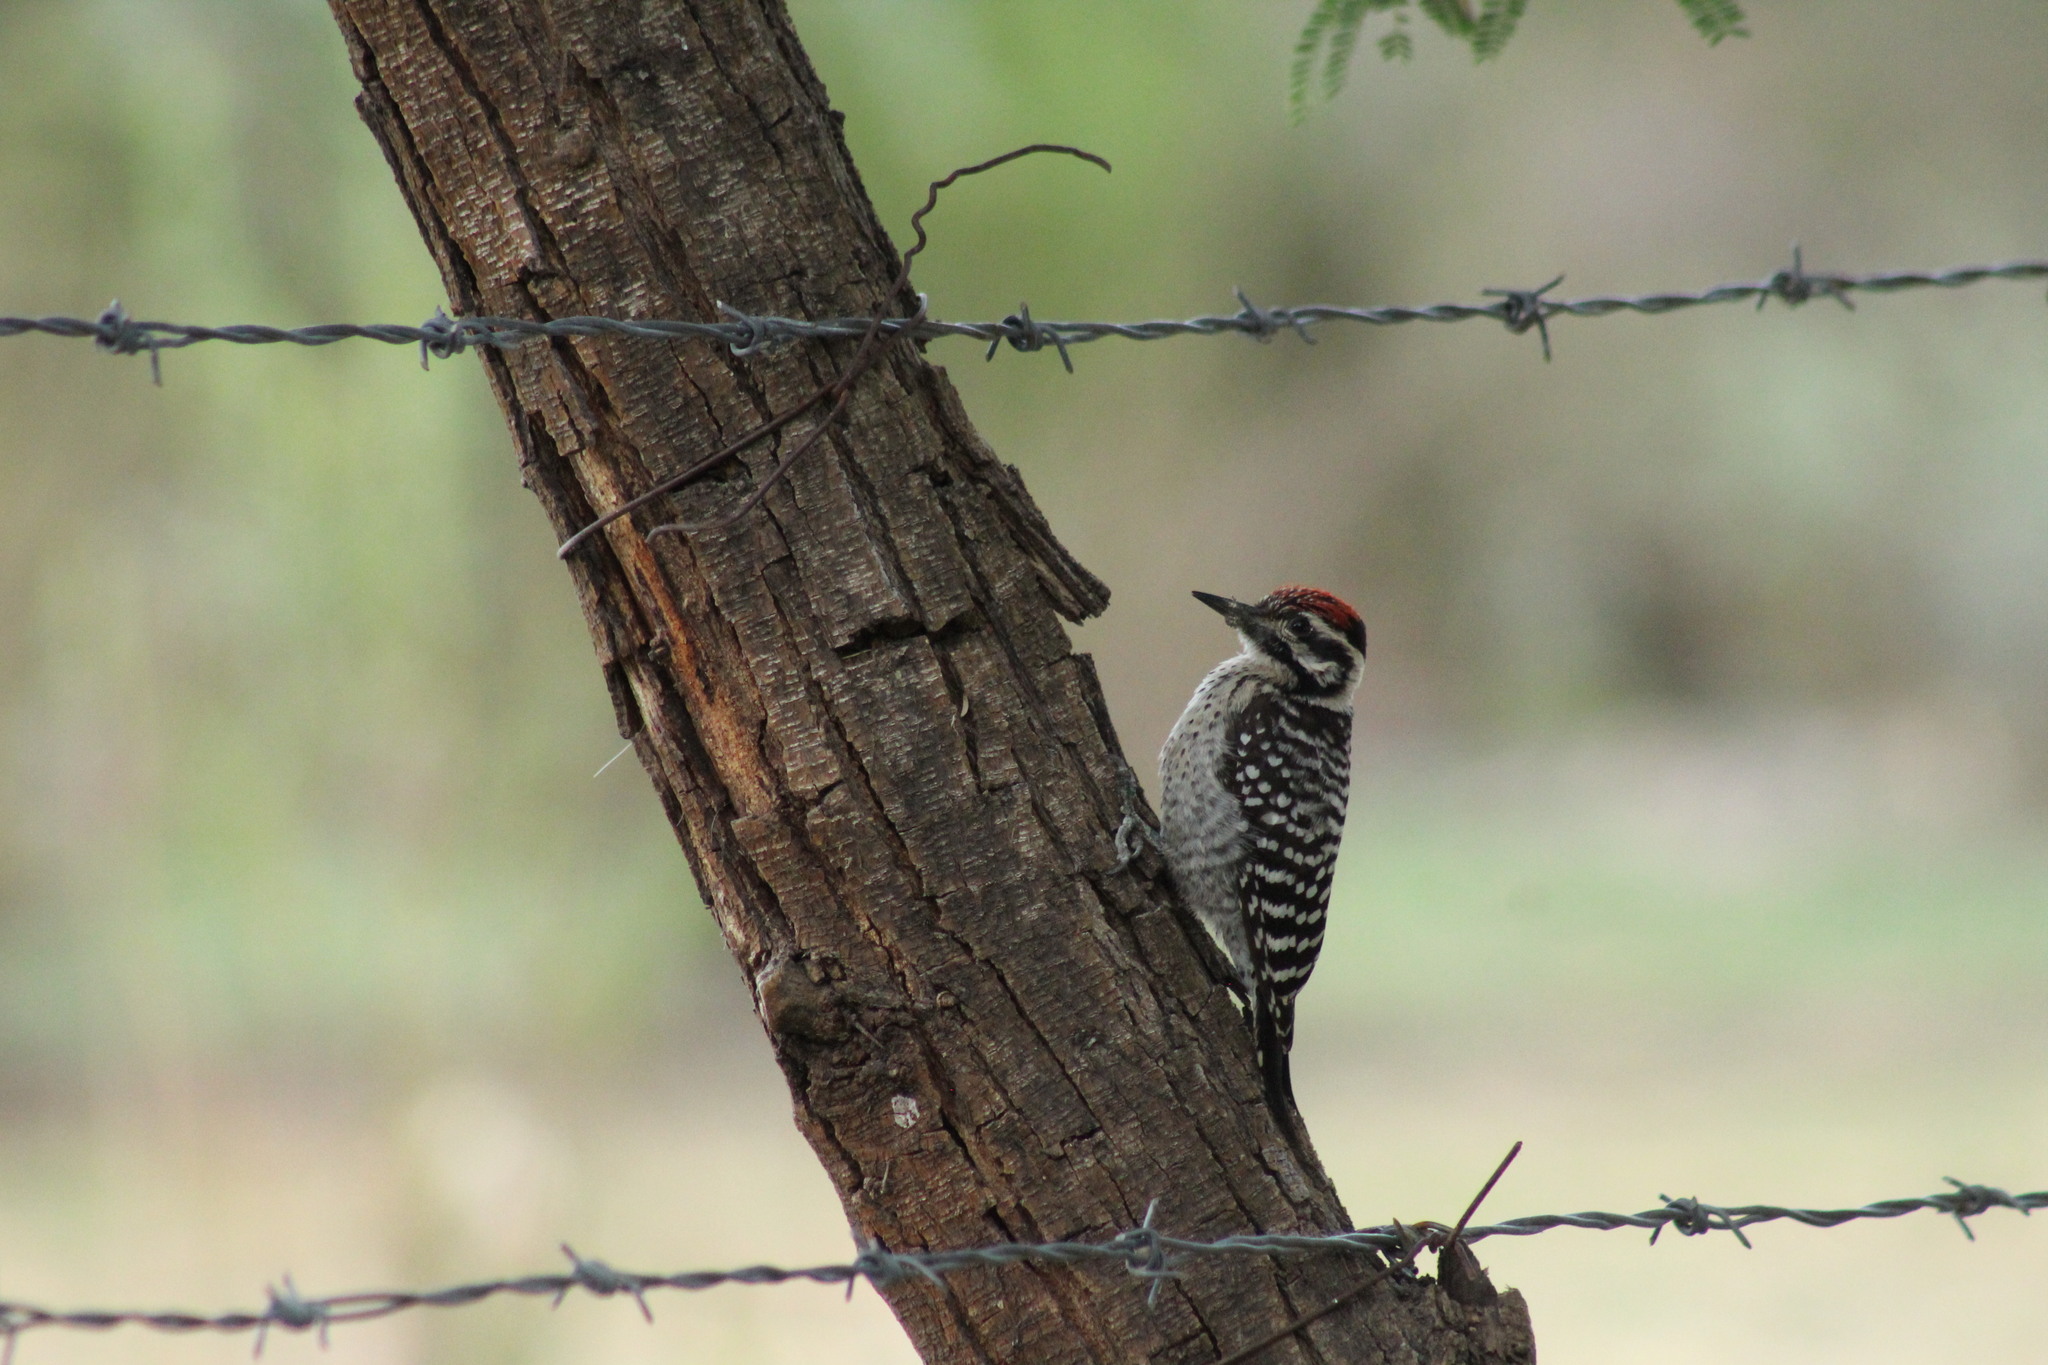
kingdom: Animalia
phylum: Chordata
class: Aves
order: Piciformes
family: Picidae
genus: Dryobates
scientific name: Dryobates scalaris
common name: Ladder-backed woodpecker
